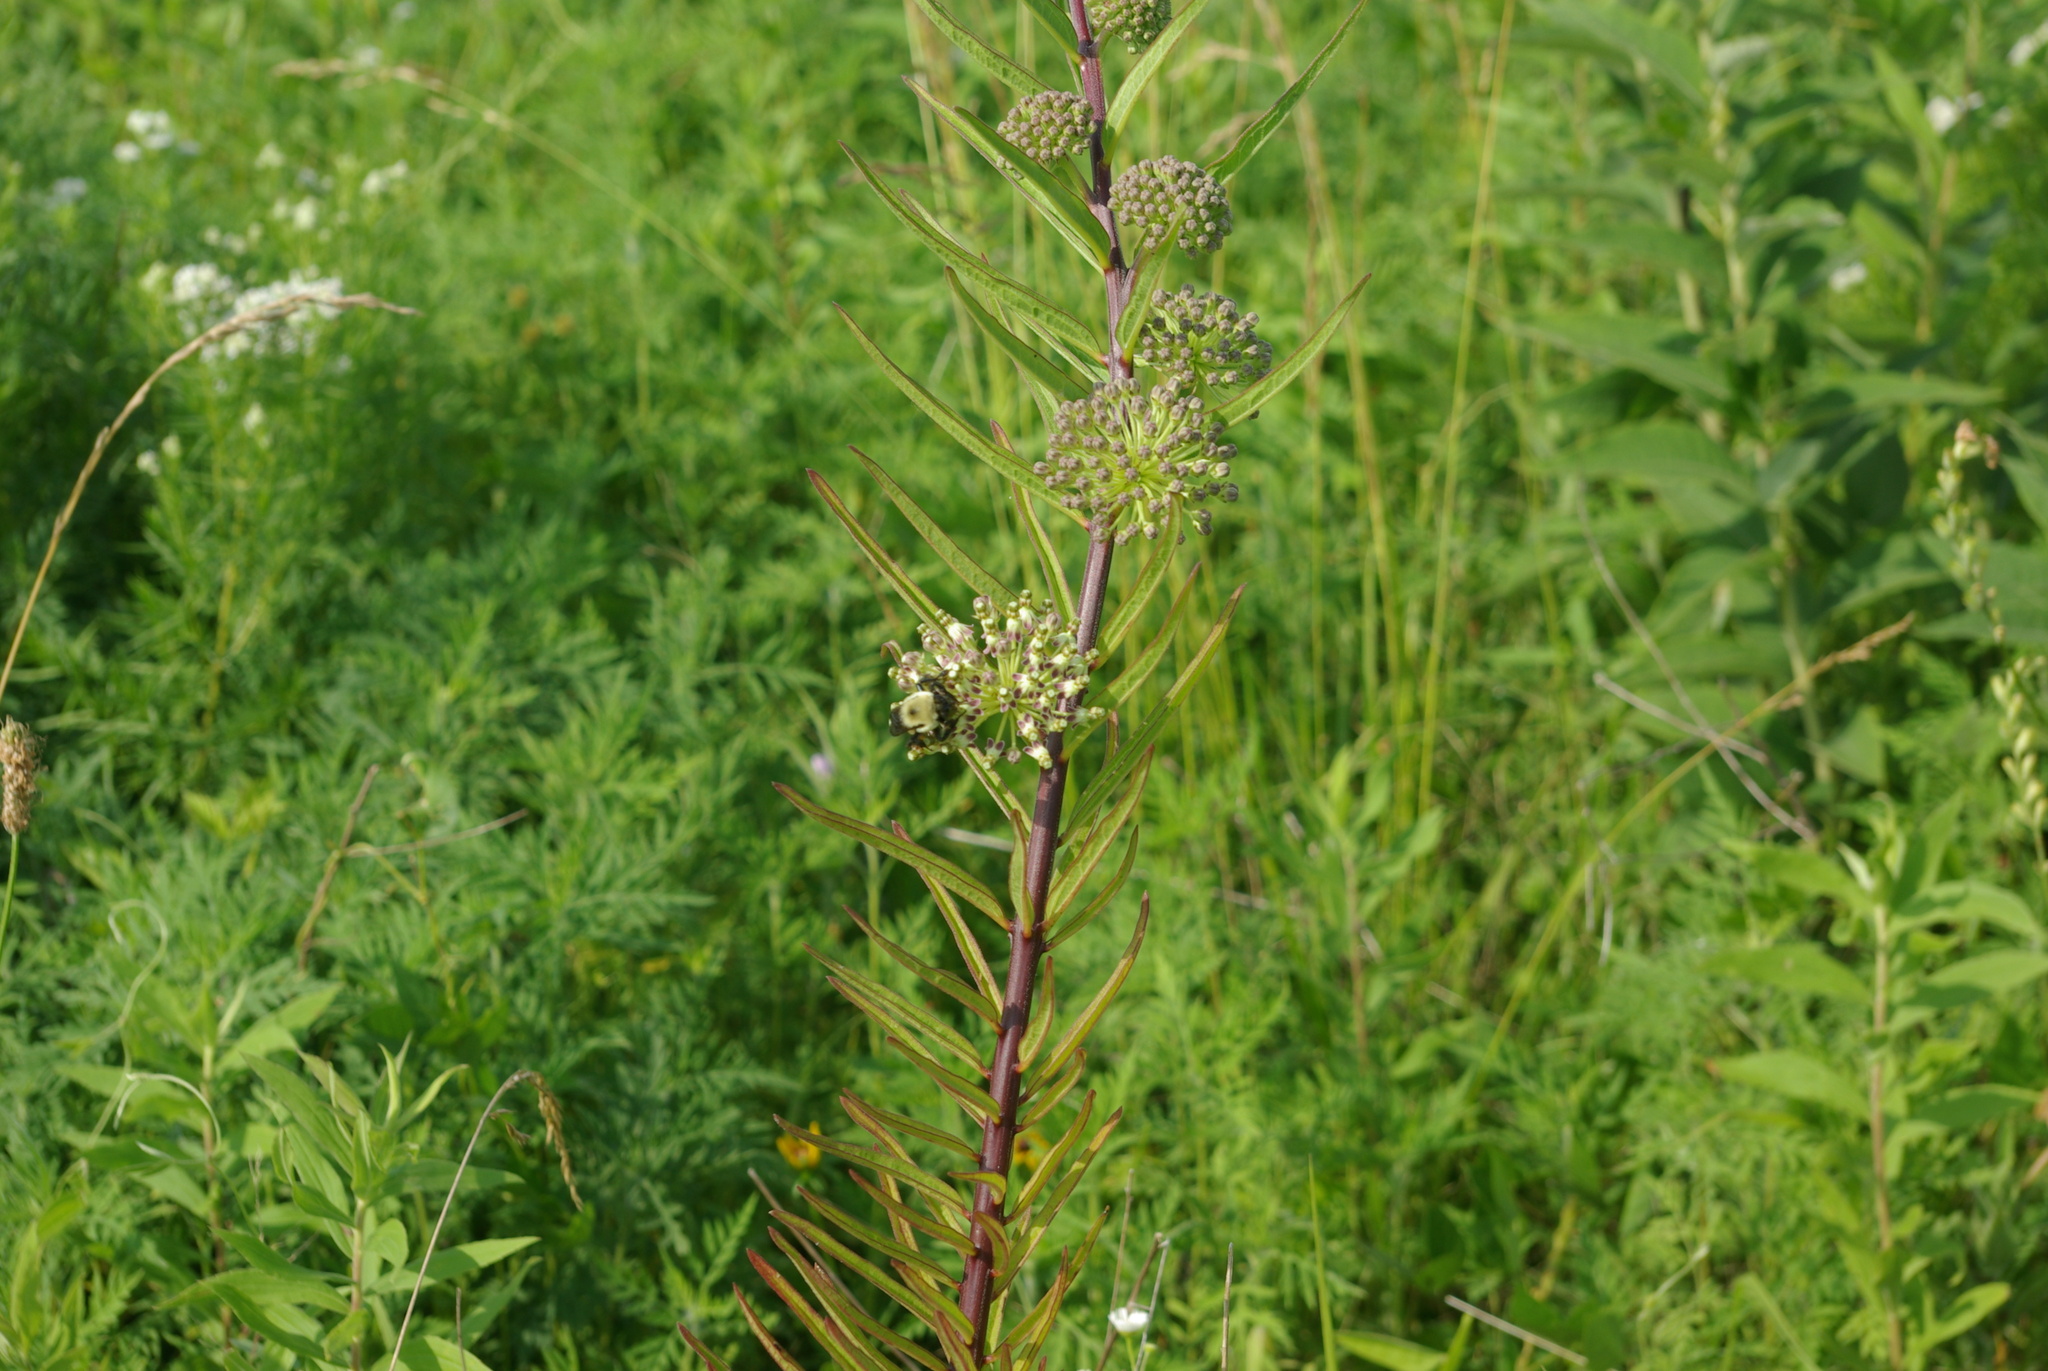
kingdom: Plantae
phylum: Tracheophyta
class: Magnoliopsida
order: Gentianales
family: Apocynaceae
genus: Asclepias
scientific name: Asclepias hirtella
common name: Prairie milkweed
